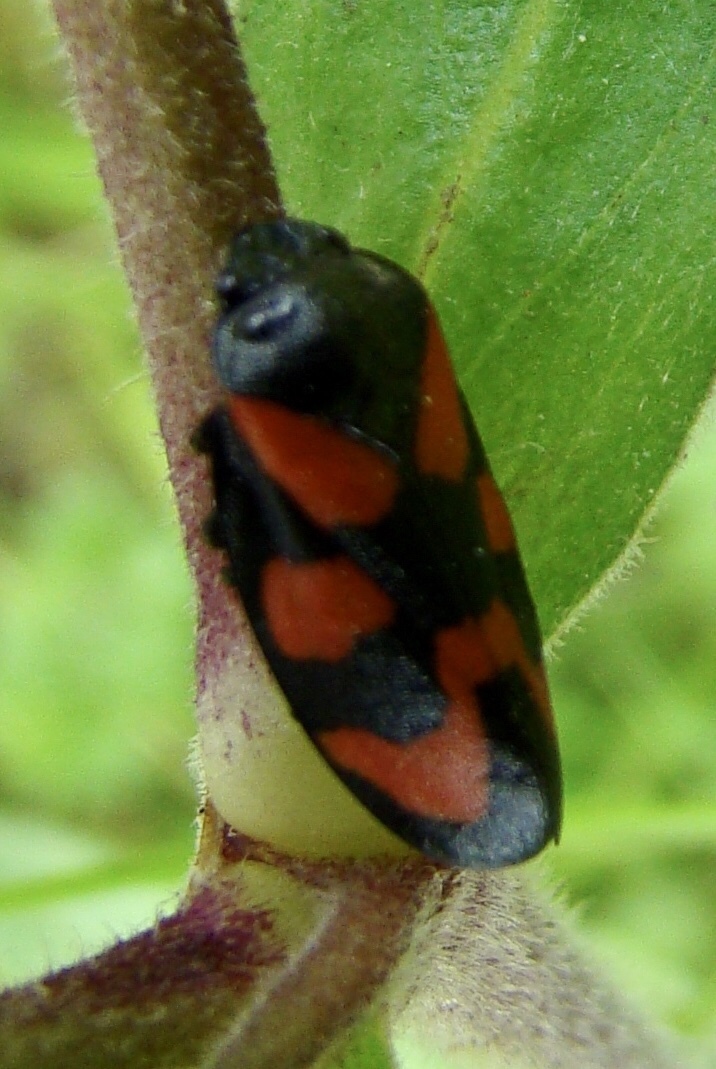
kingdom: Animalia
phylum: Arthropoda
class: Insecta
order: Hemiptera
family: Cercopidae
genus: Cercopis
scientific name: Cercopis vulnerata
